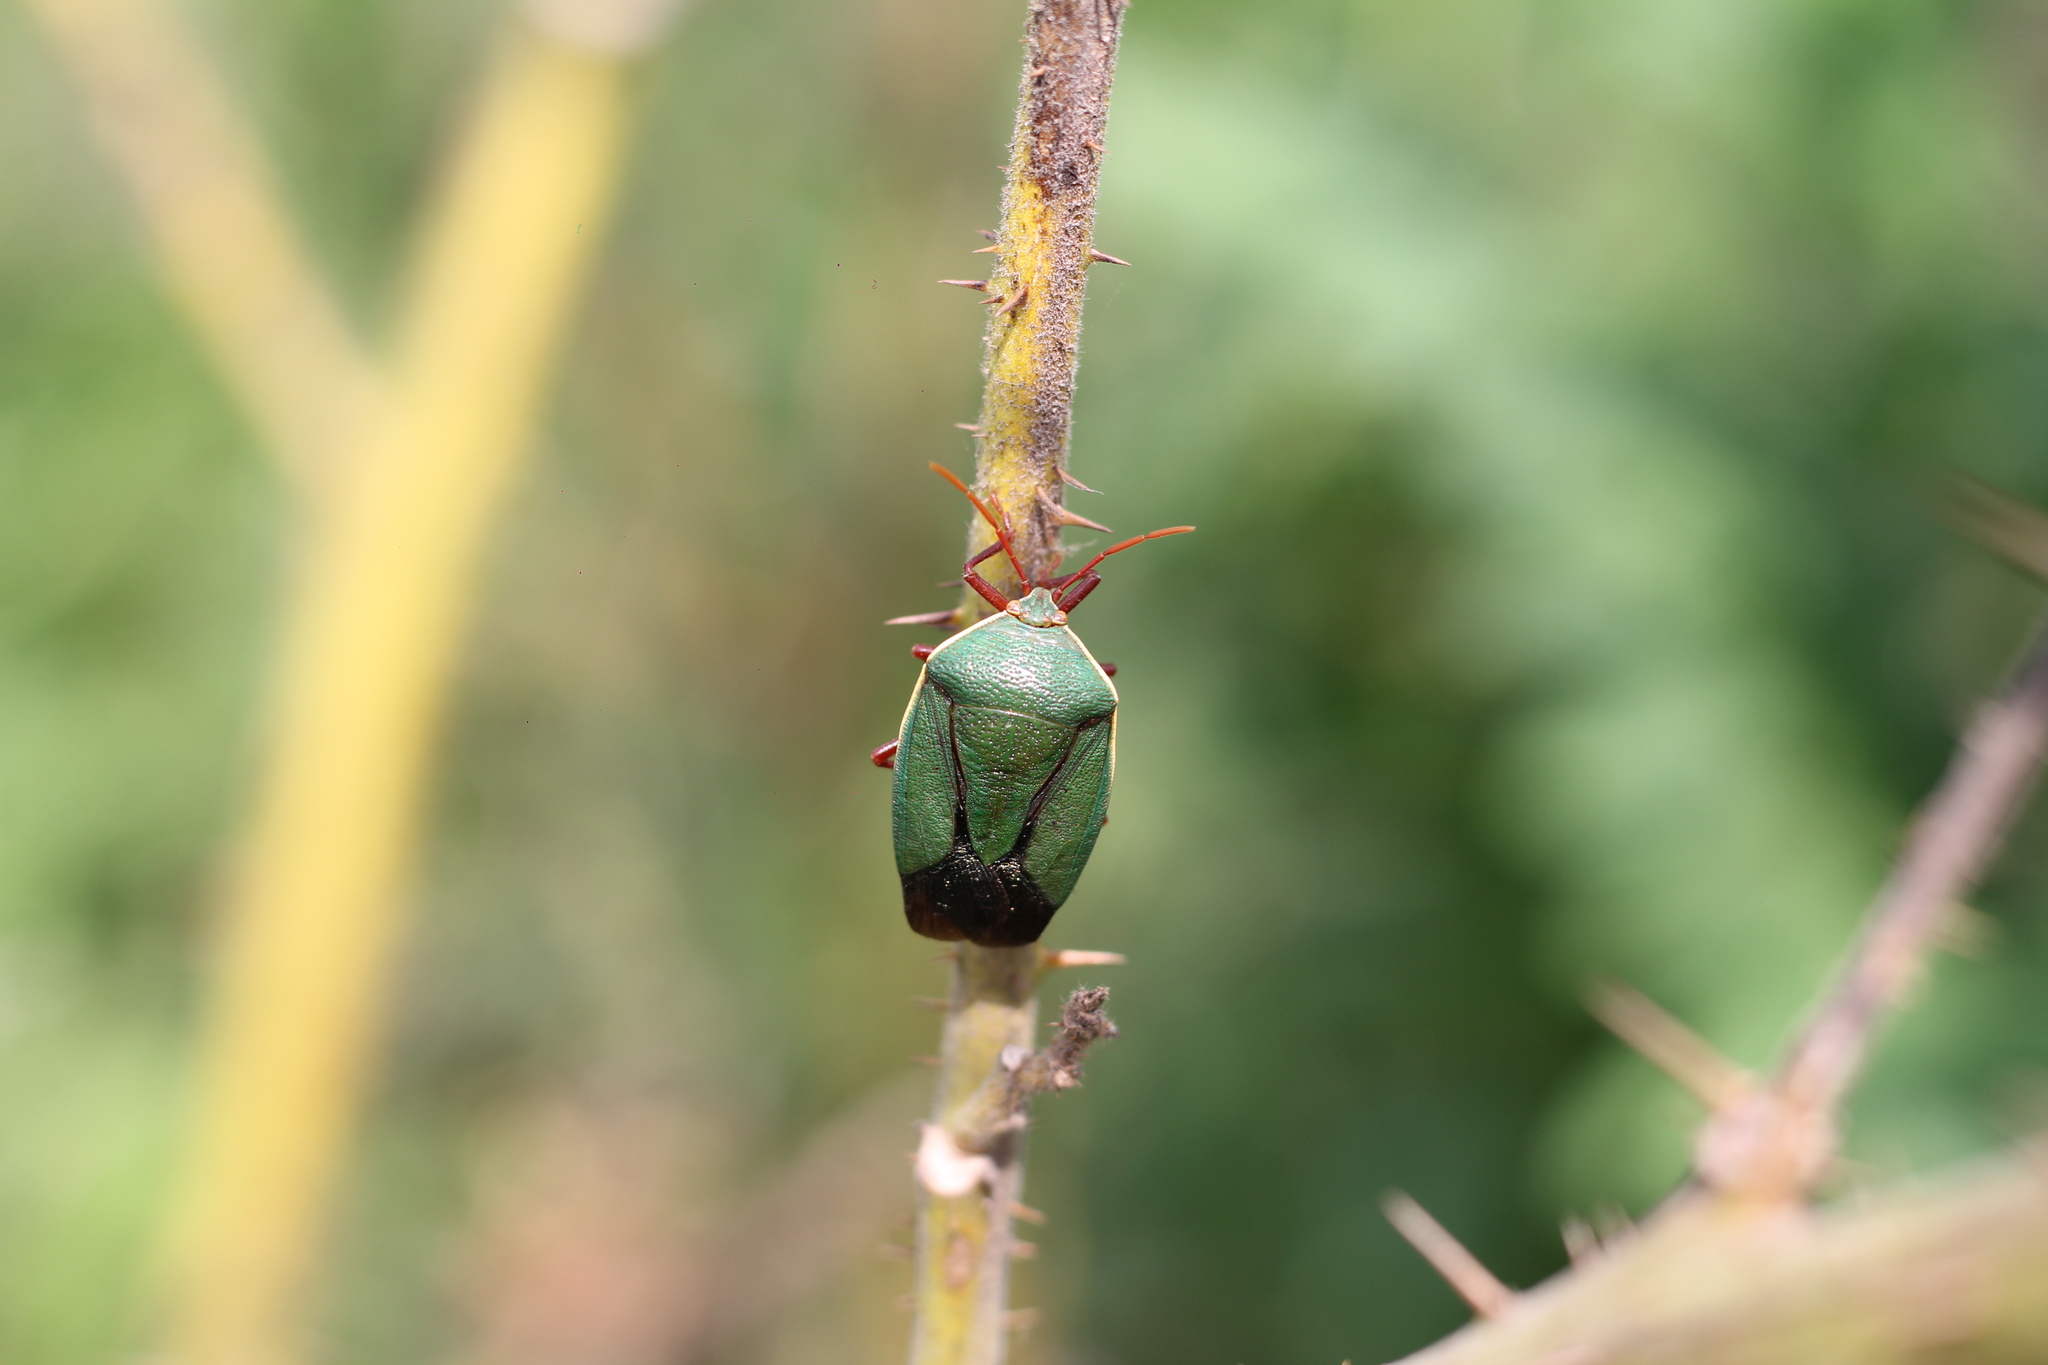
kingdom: Animalia
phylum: Arthropoda
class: Insecta
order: Hemiptera
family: Pentatomidae
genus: Edessa
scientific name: Edessa
